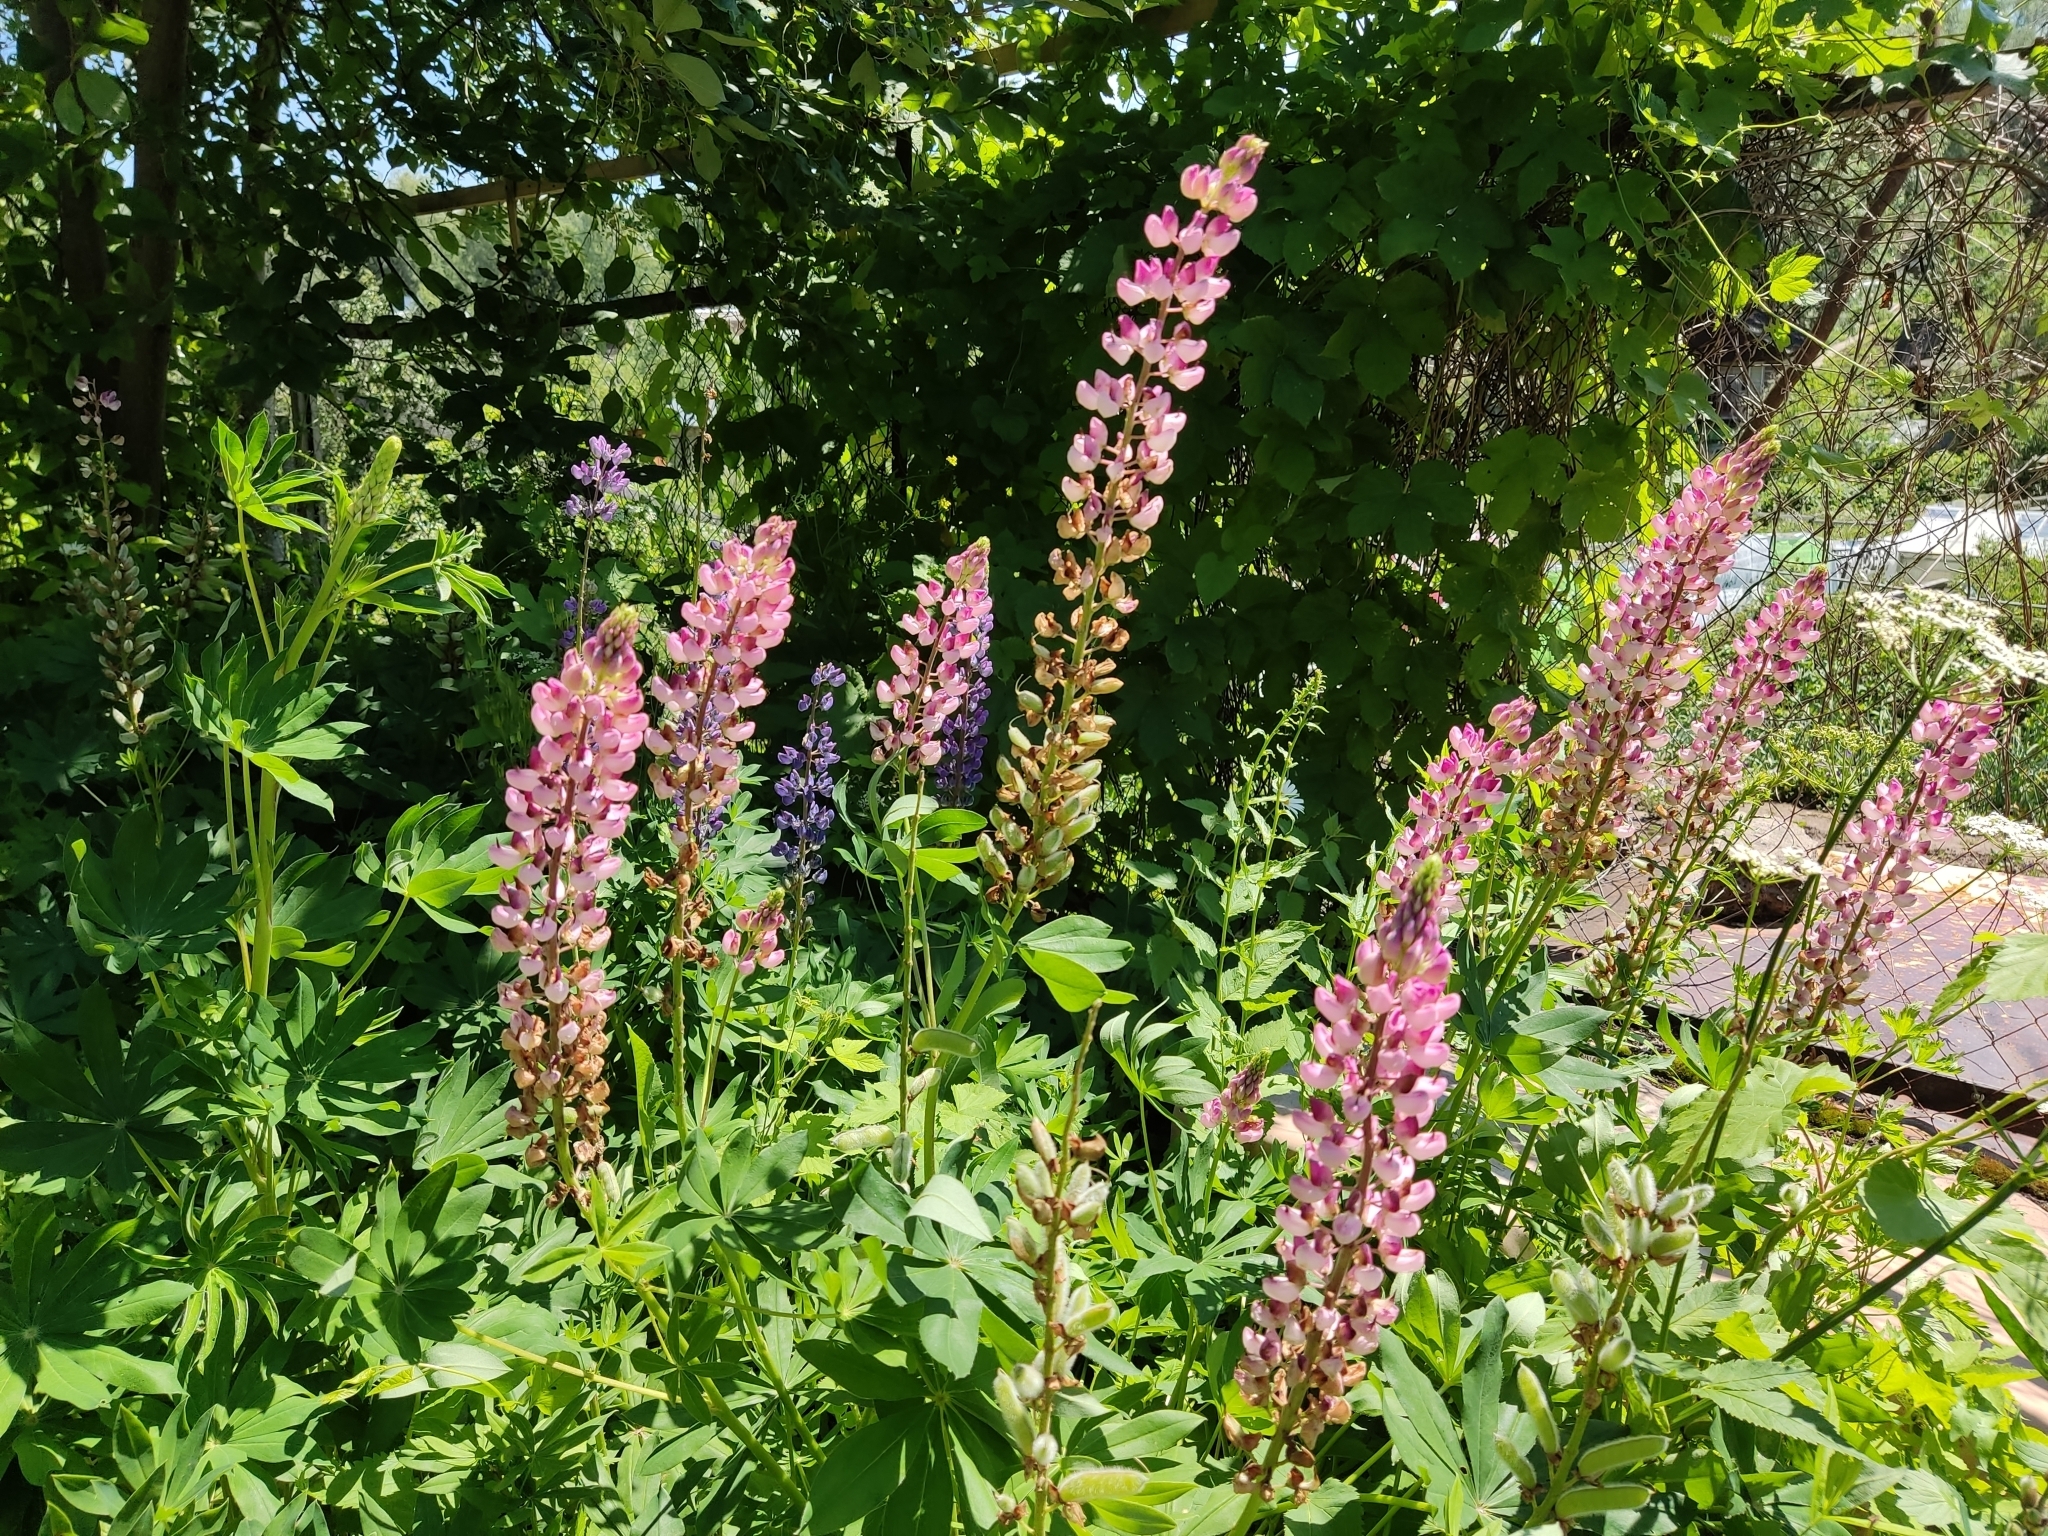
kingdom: Plantae
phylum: Tracheophyta
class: Magnoliopsida
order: Fabales
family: Fabaceae
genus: Lupinus
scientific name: Lupinus polyphyllus
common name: Garden lupin
